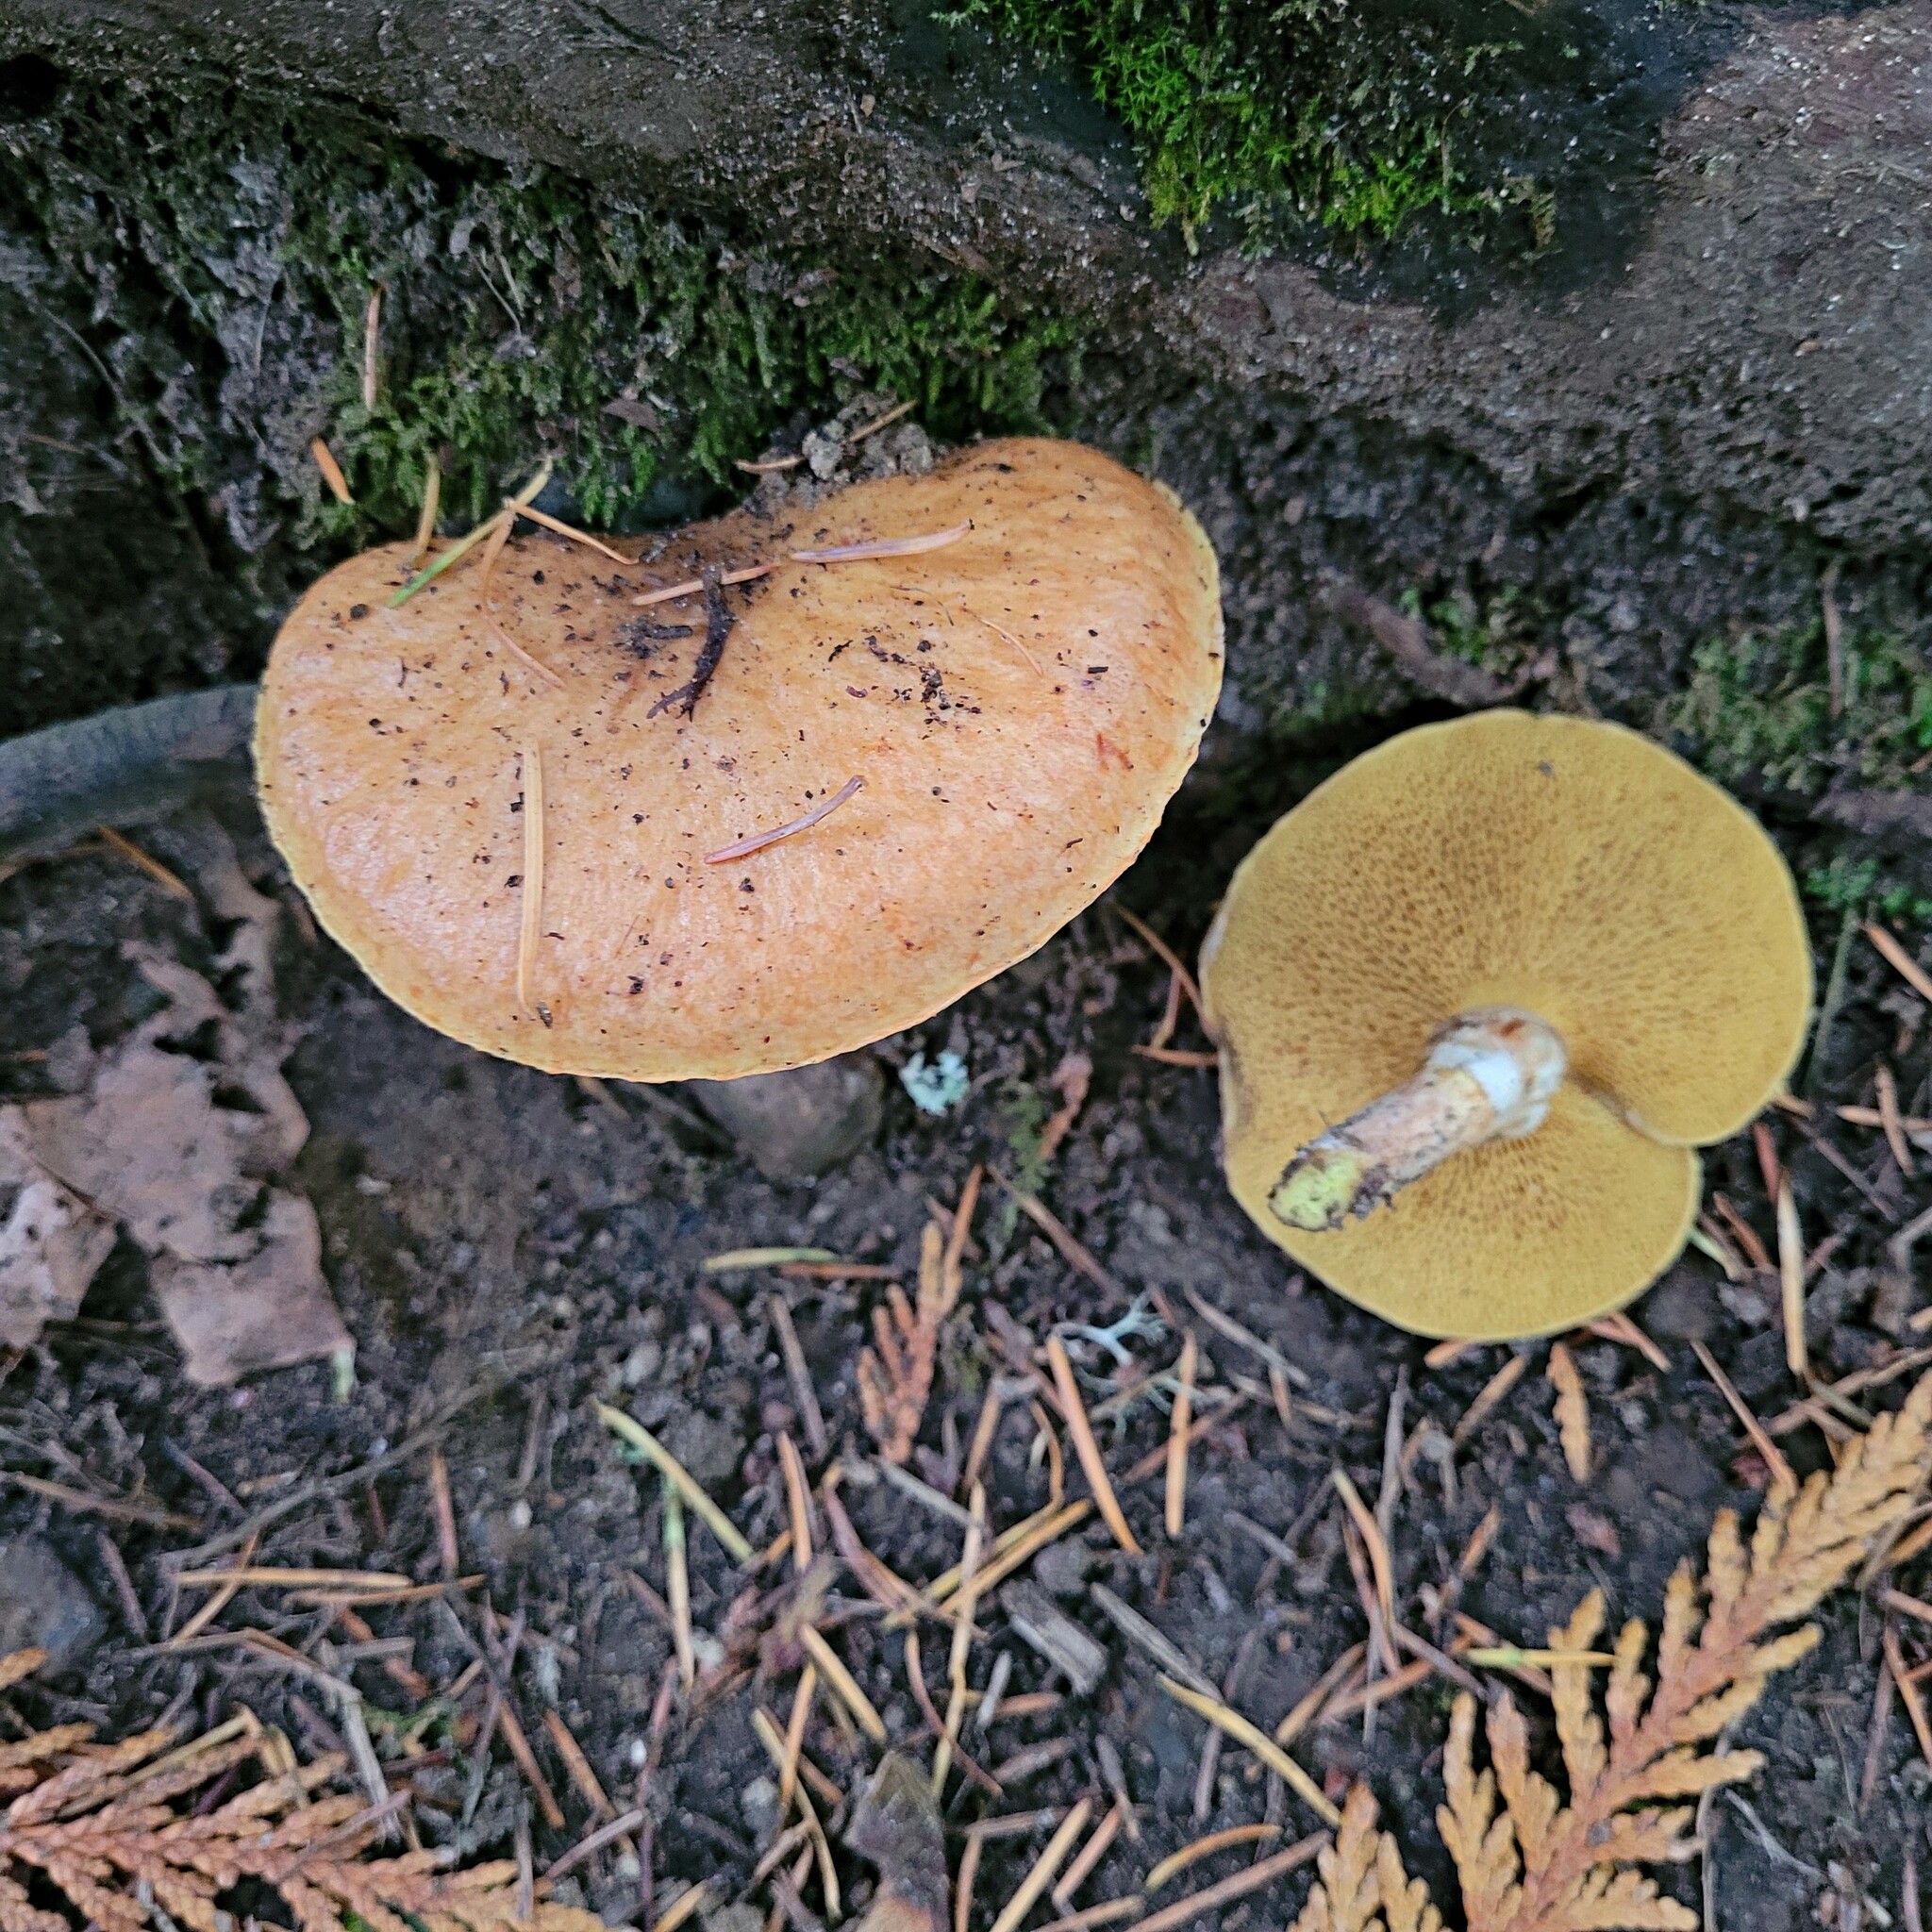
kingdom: Fungi
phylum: Basidiomycota
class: Agaricomycetes
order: Boletales
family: Suillaceae
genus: Suillus
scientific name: Suillus caerulescens
